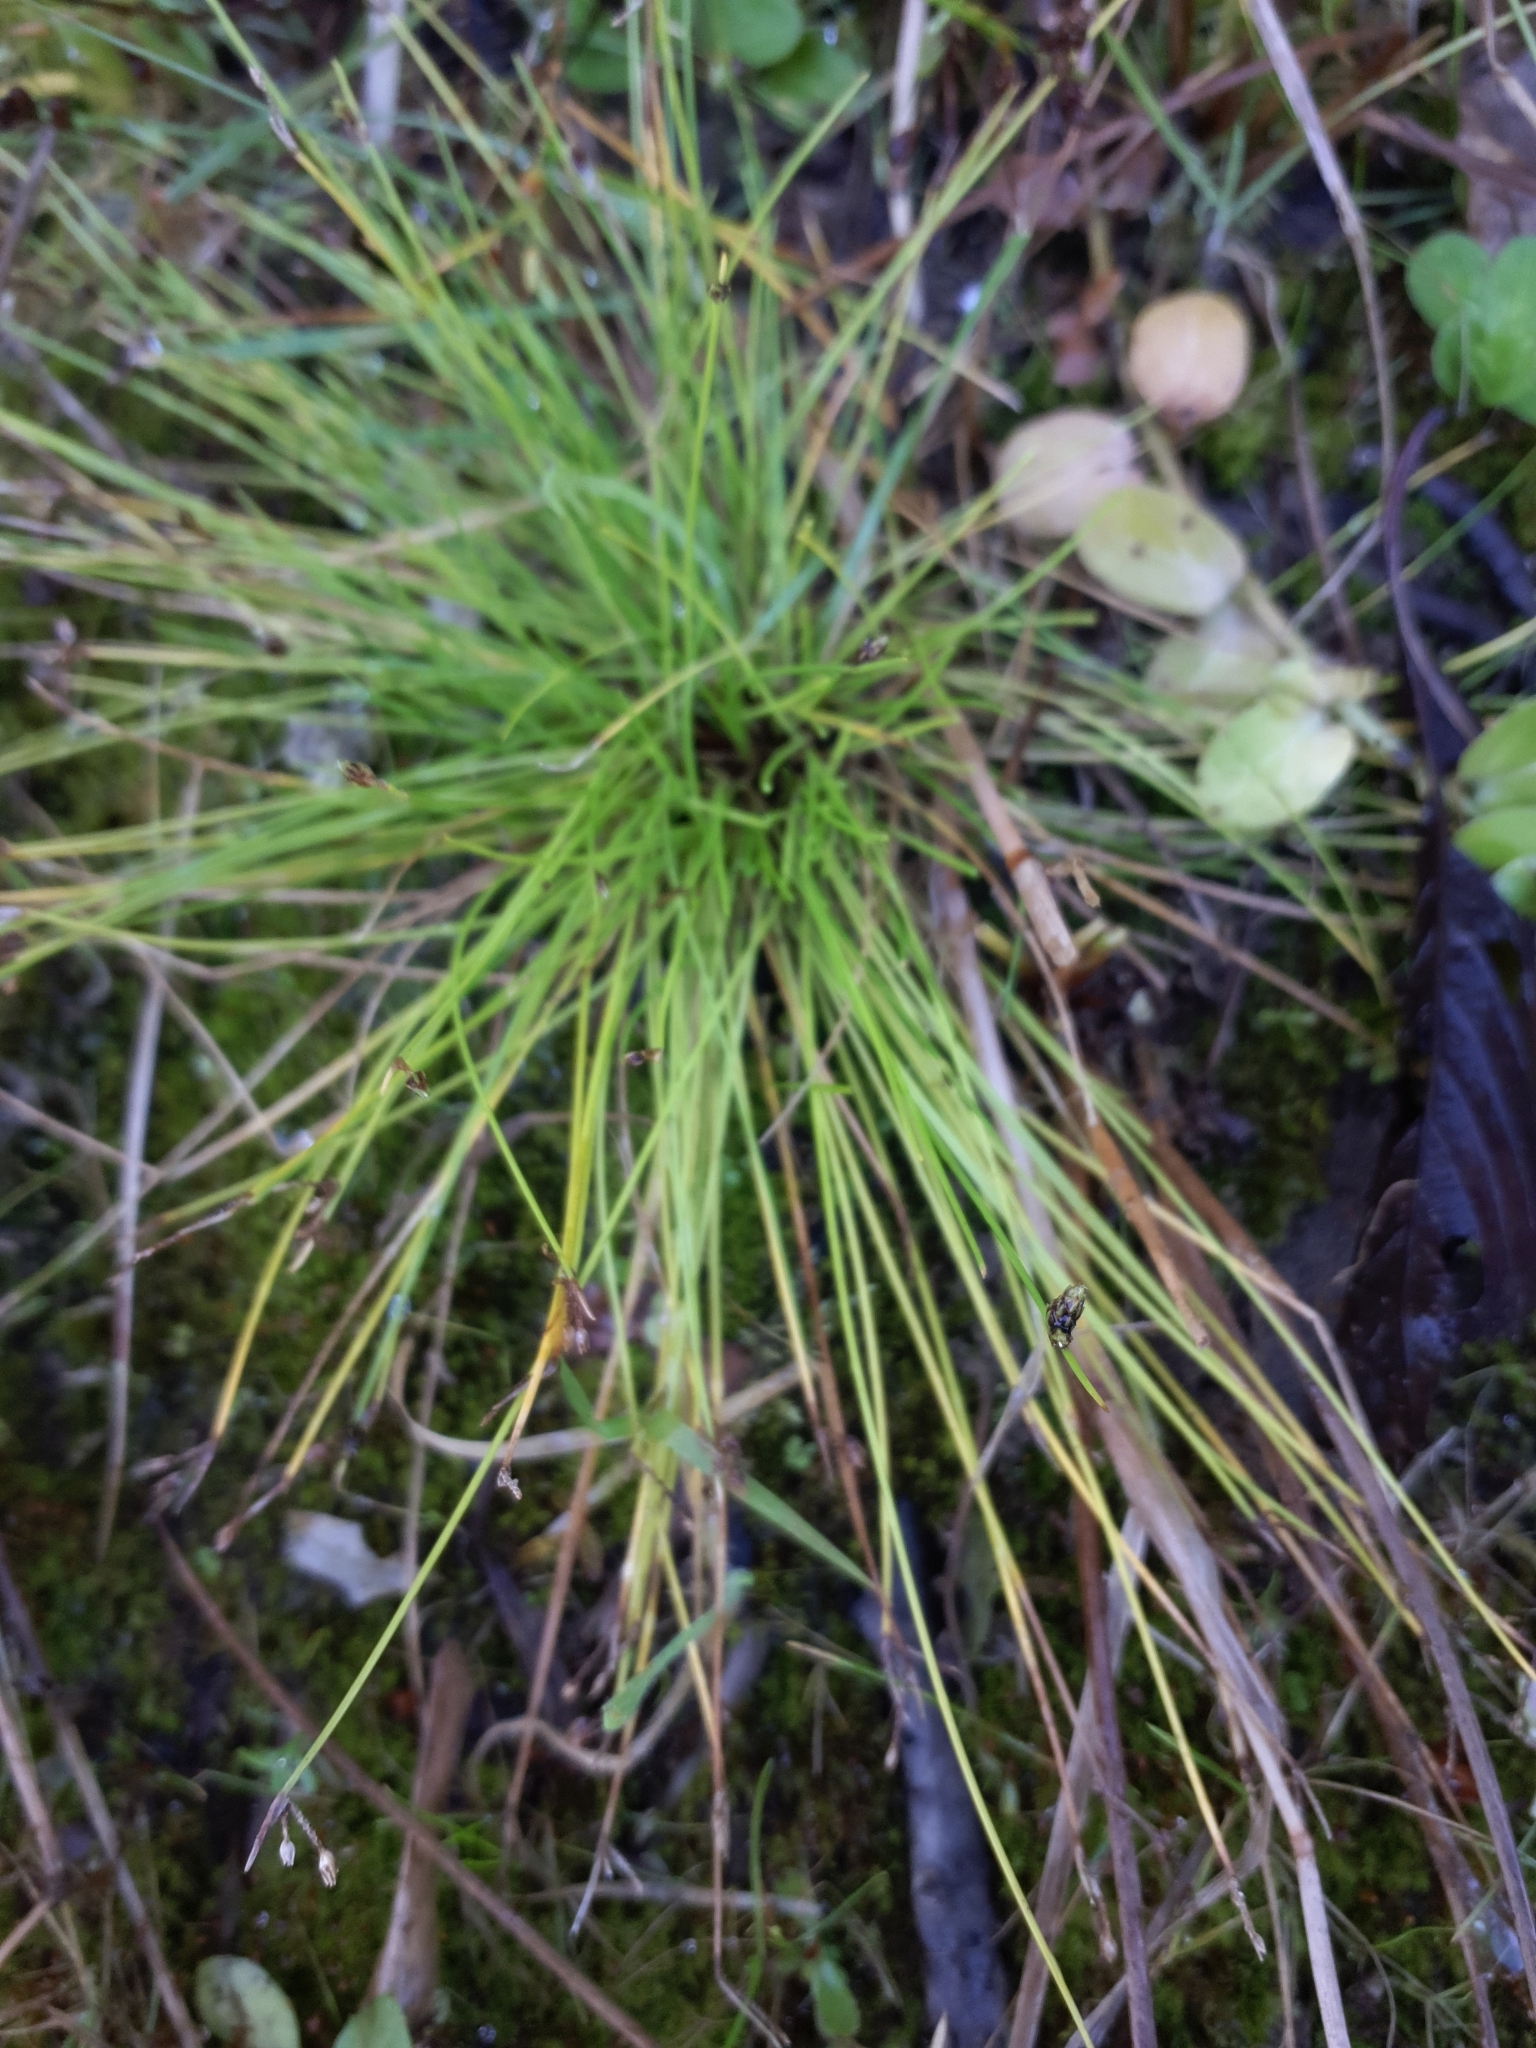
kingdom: Plantae
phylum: Tracheophyta
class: Liliopsida
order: Poales
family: Cyperaceae
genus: Isolepis
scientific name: Isolepis setacea
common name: Bristle club-rush
